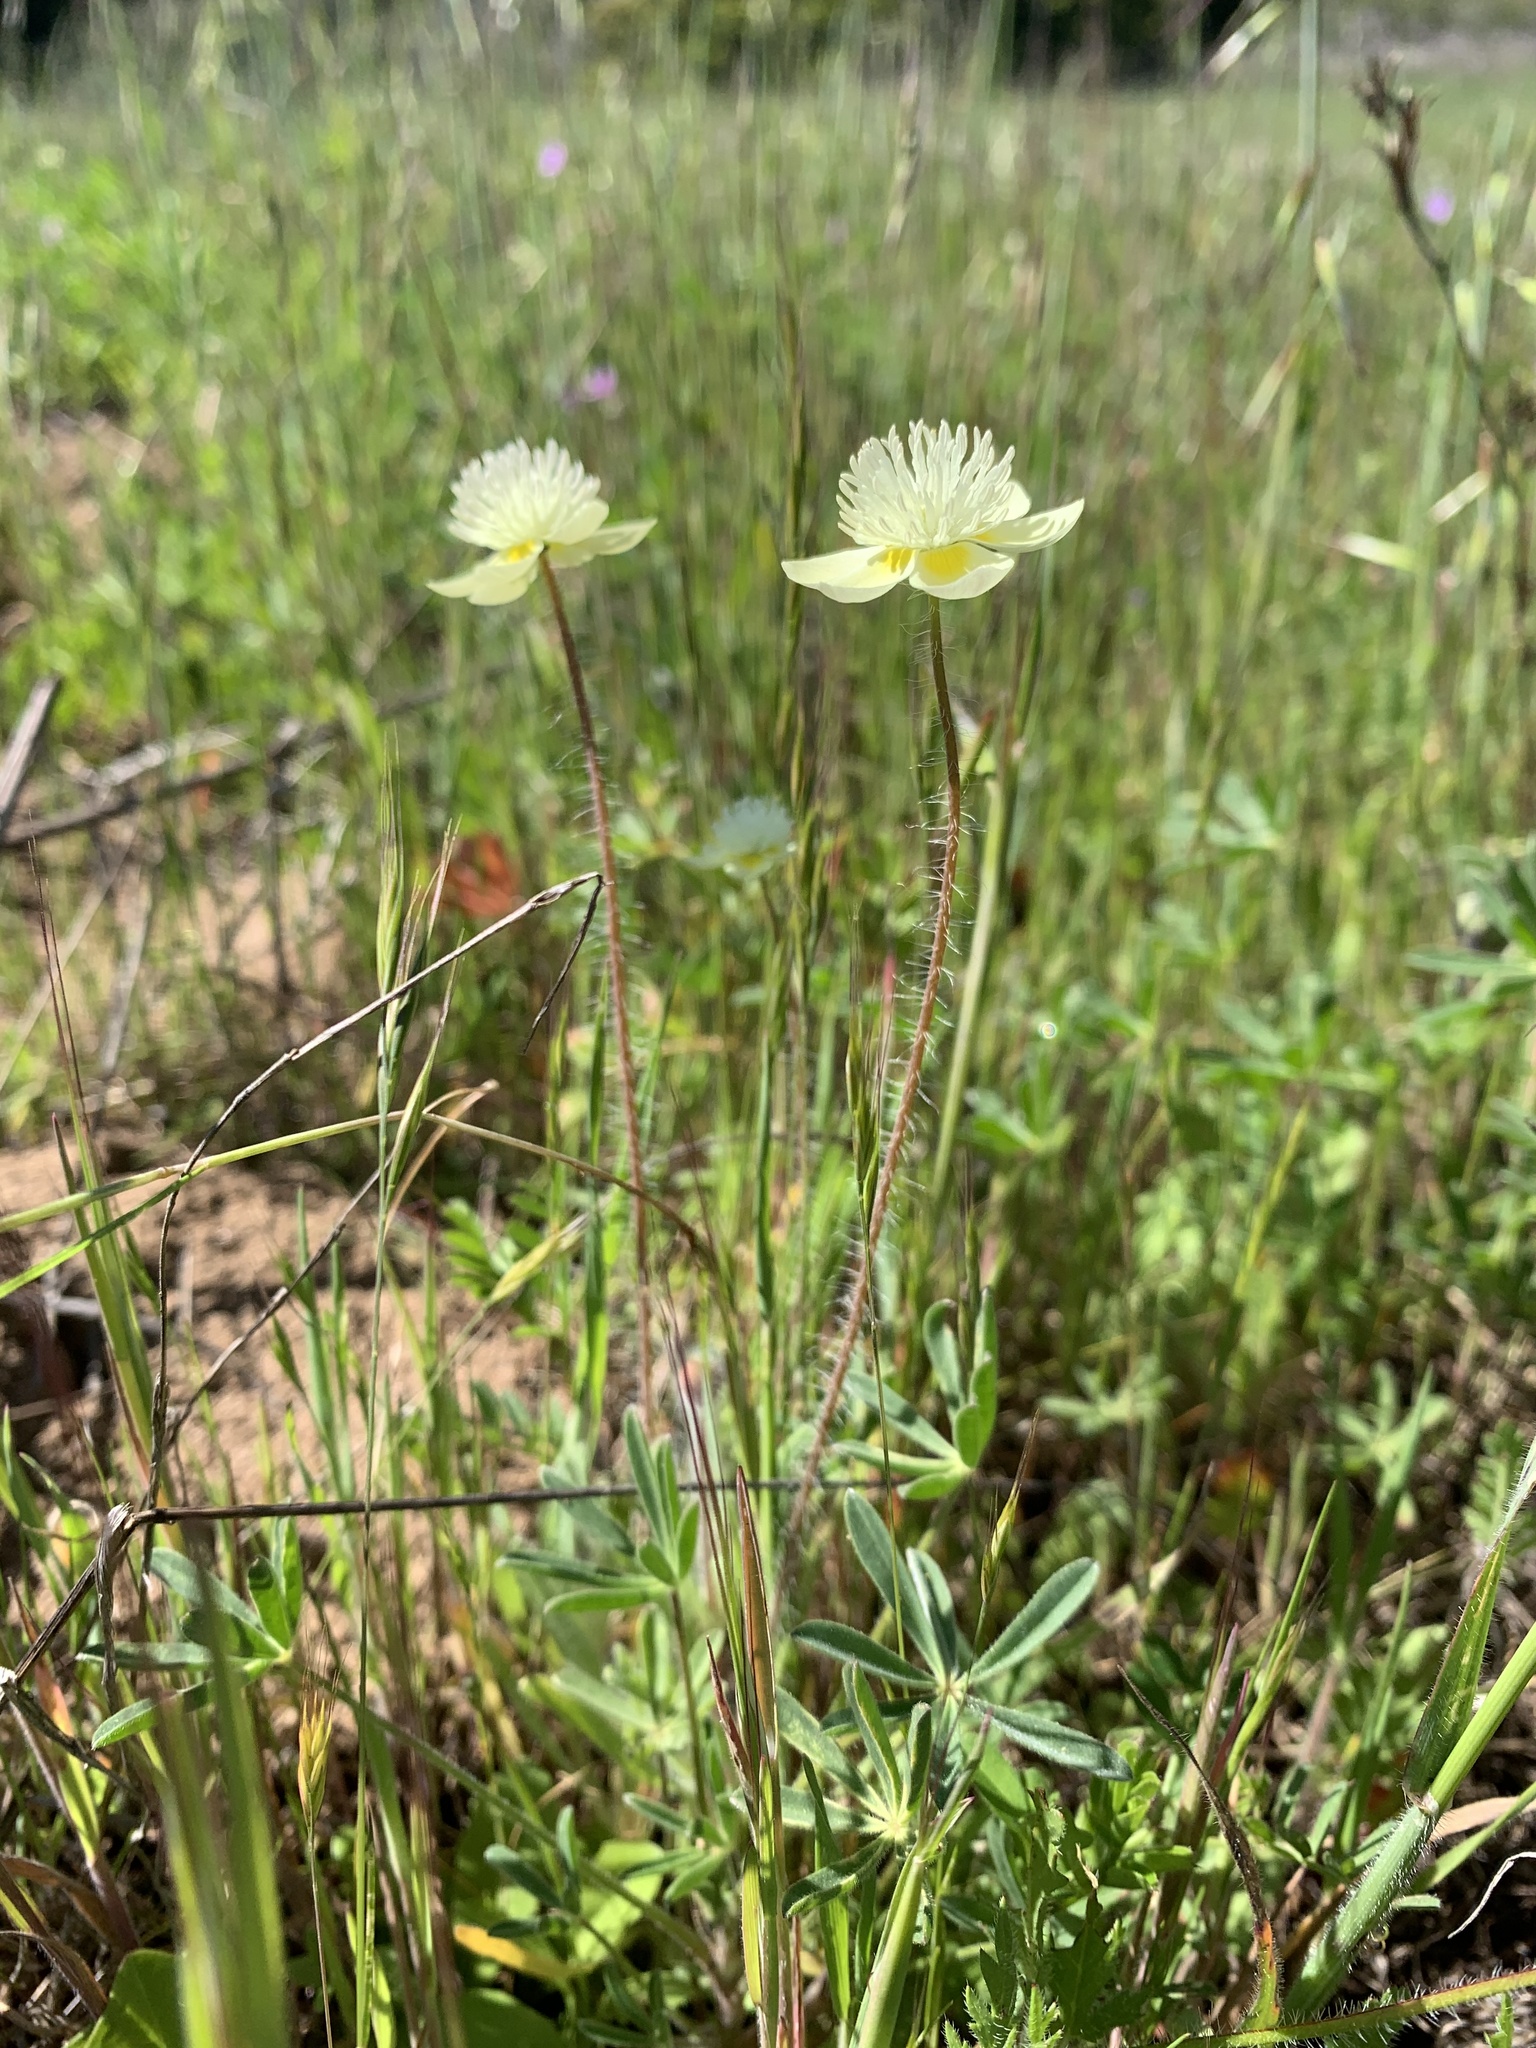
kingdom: Plantae
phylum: Tracheophyta
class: Magnoliopsida
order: Ranunculales
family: Papaveraceae
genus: Platystemon
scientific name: Platystemon californicus
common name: Cream-cups
